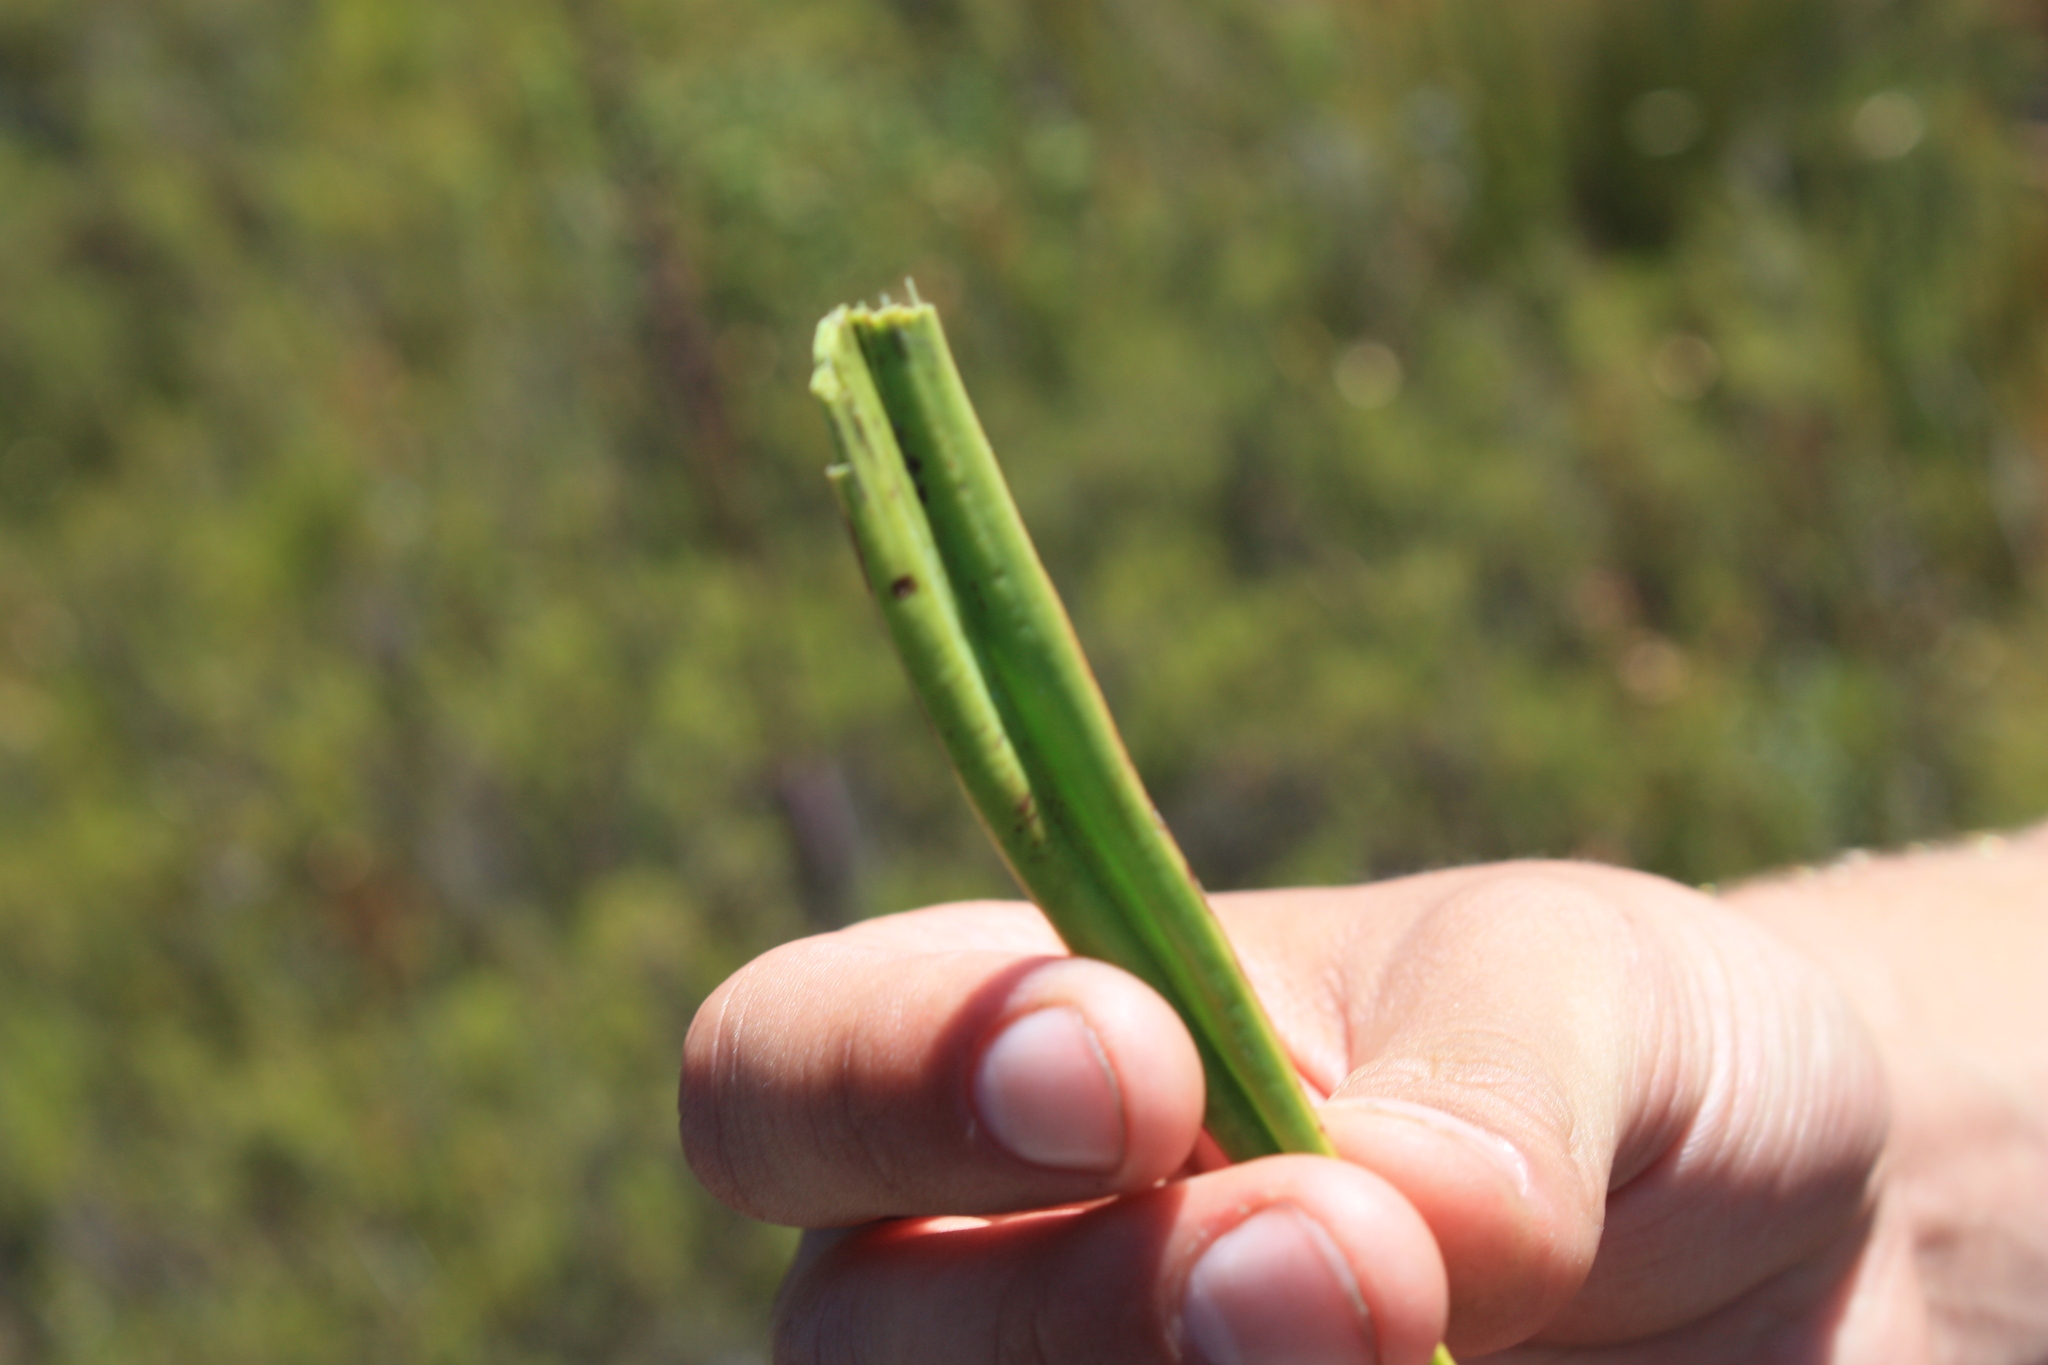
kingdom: Plantae
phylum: Tracheophyta
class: Magnoliopsida
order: Asterales
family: Asteraceae
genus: Corymbium
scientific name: Corymbium enerve
